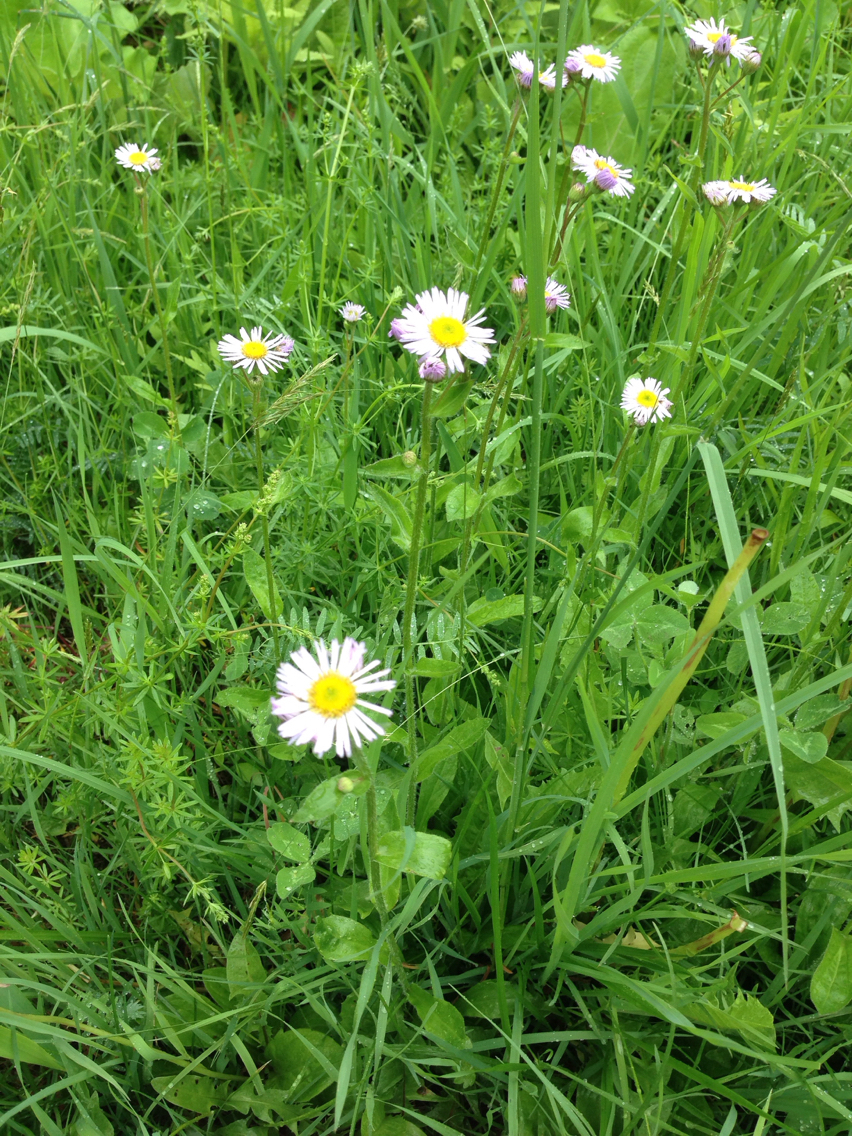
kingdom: Plantae
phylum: Tracheophyta
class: Magnoliopsida
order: Asterales
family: Asteraceae
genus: Erigeron
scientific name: Erigeron pulchellus
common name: Hairy fleabane
